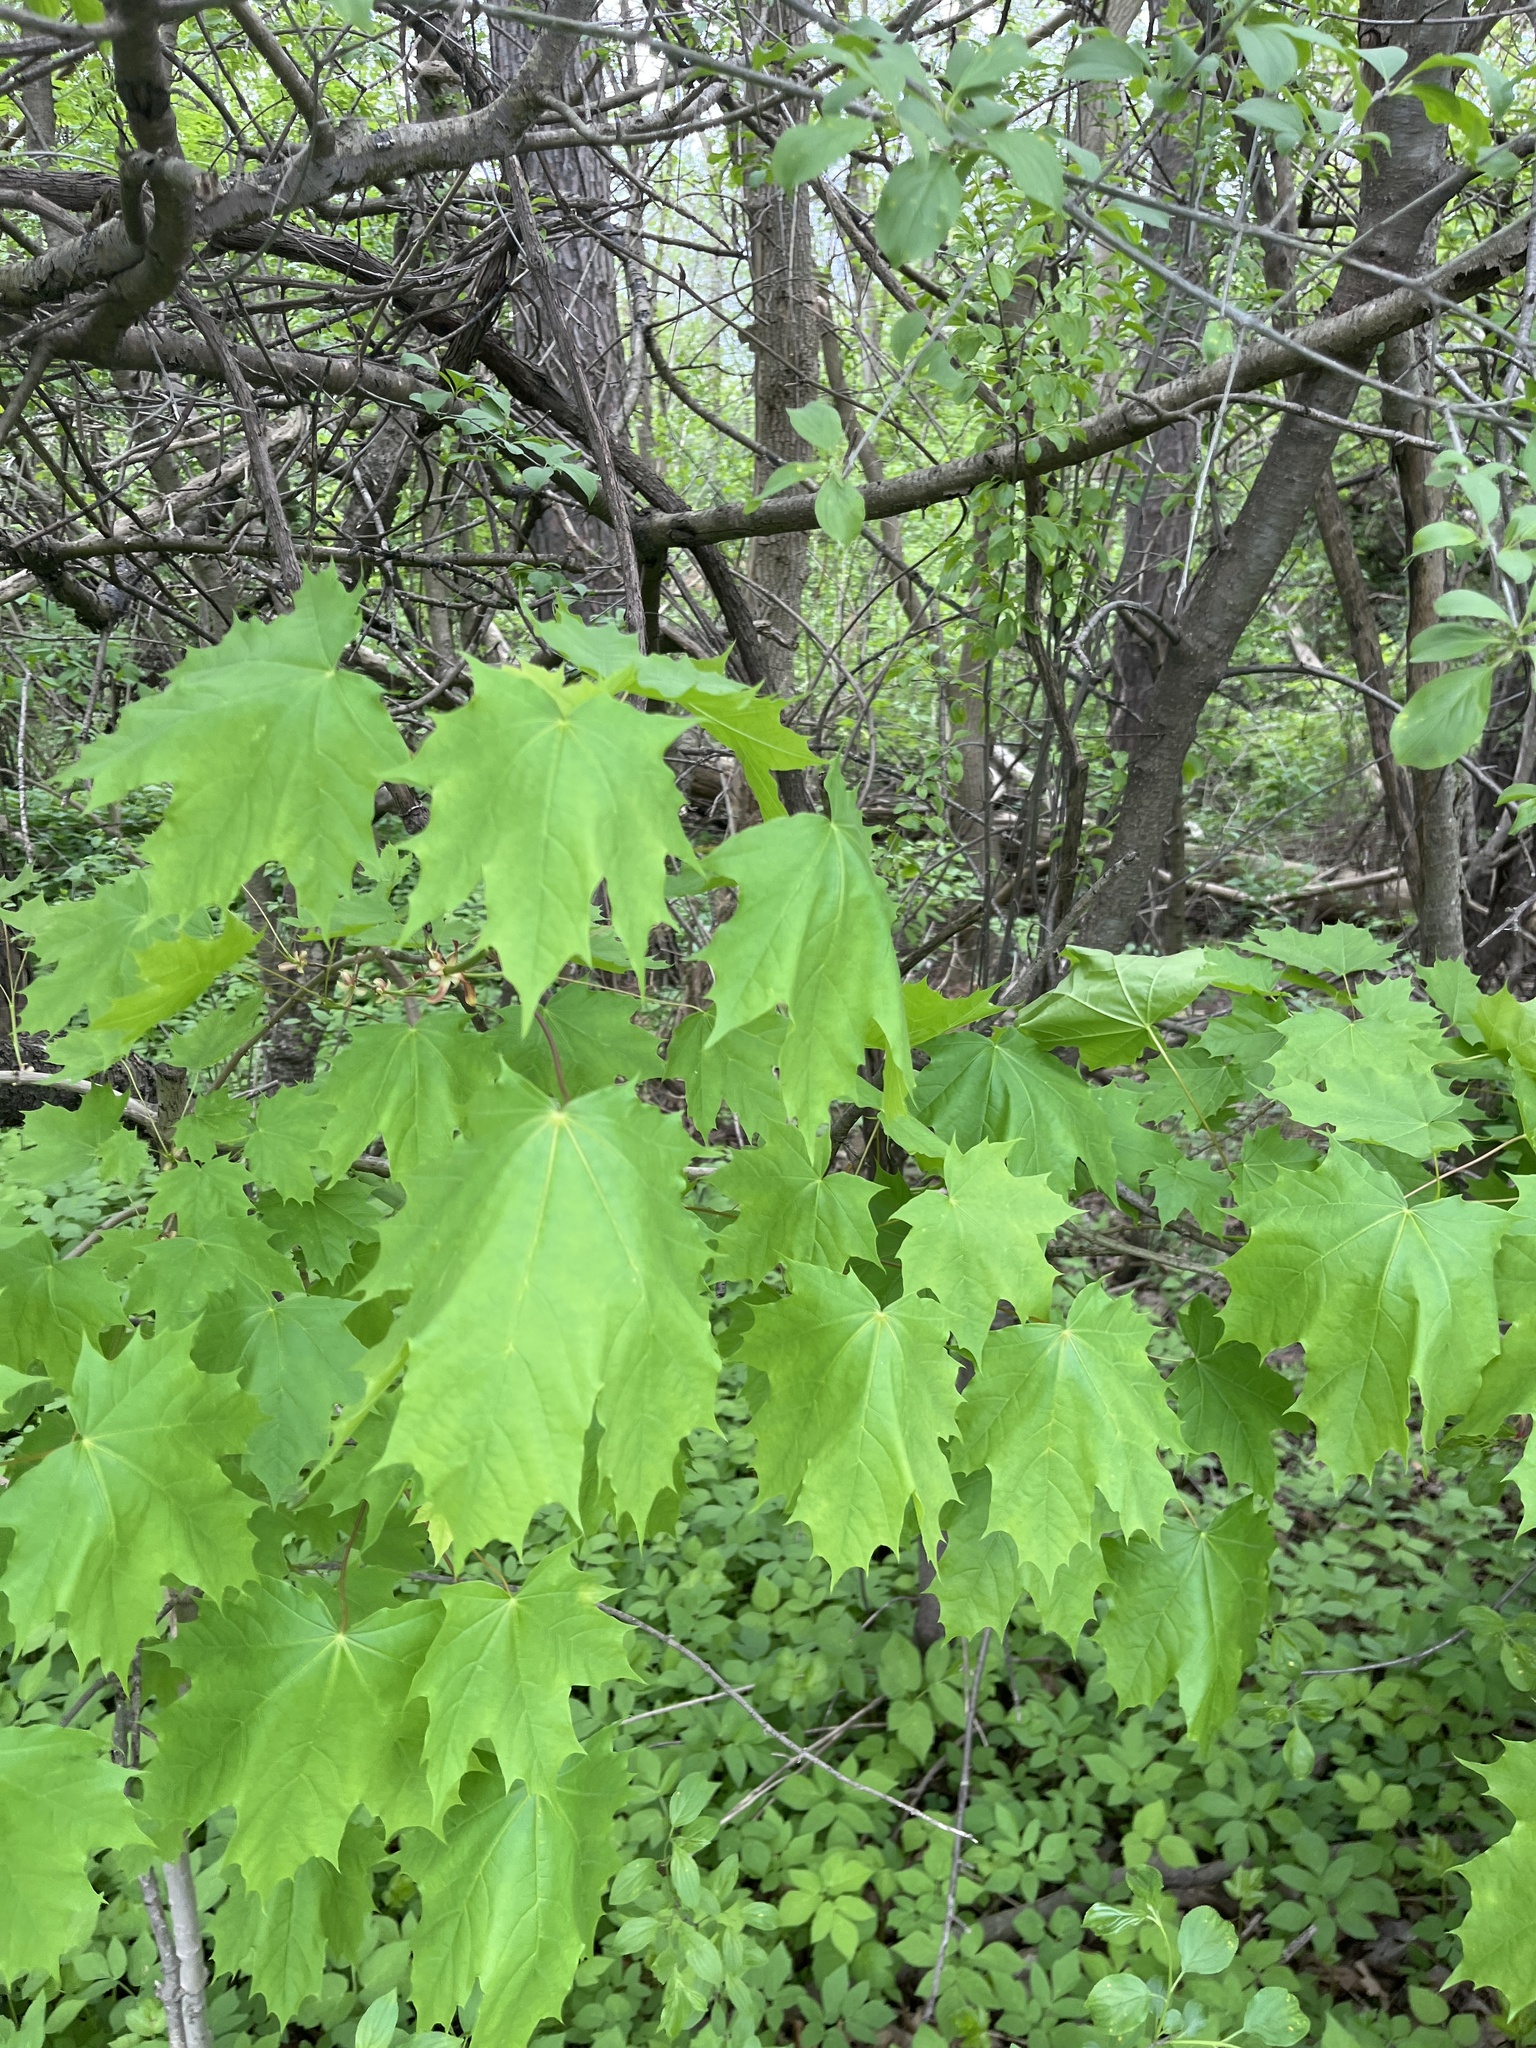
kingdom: Plantae
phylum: Tracheophyta
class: Magnoliopsida
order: Sapindales
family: Sapindaceae
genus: Acer
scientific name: Acer platanoides
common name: Norway maple
